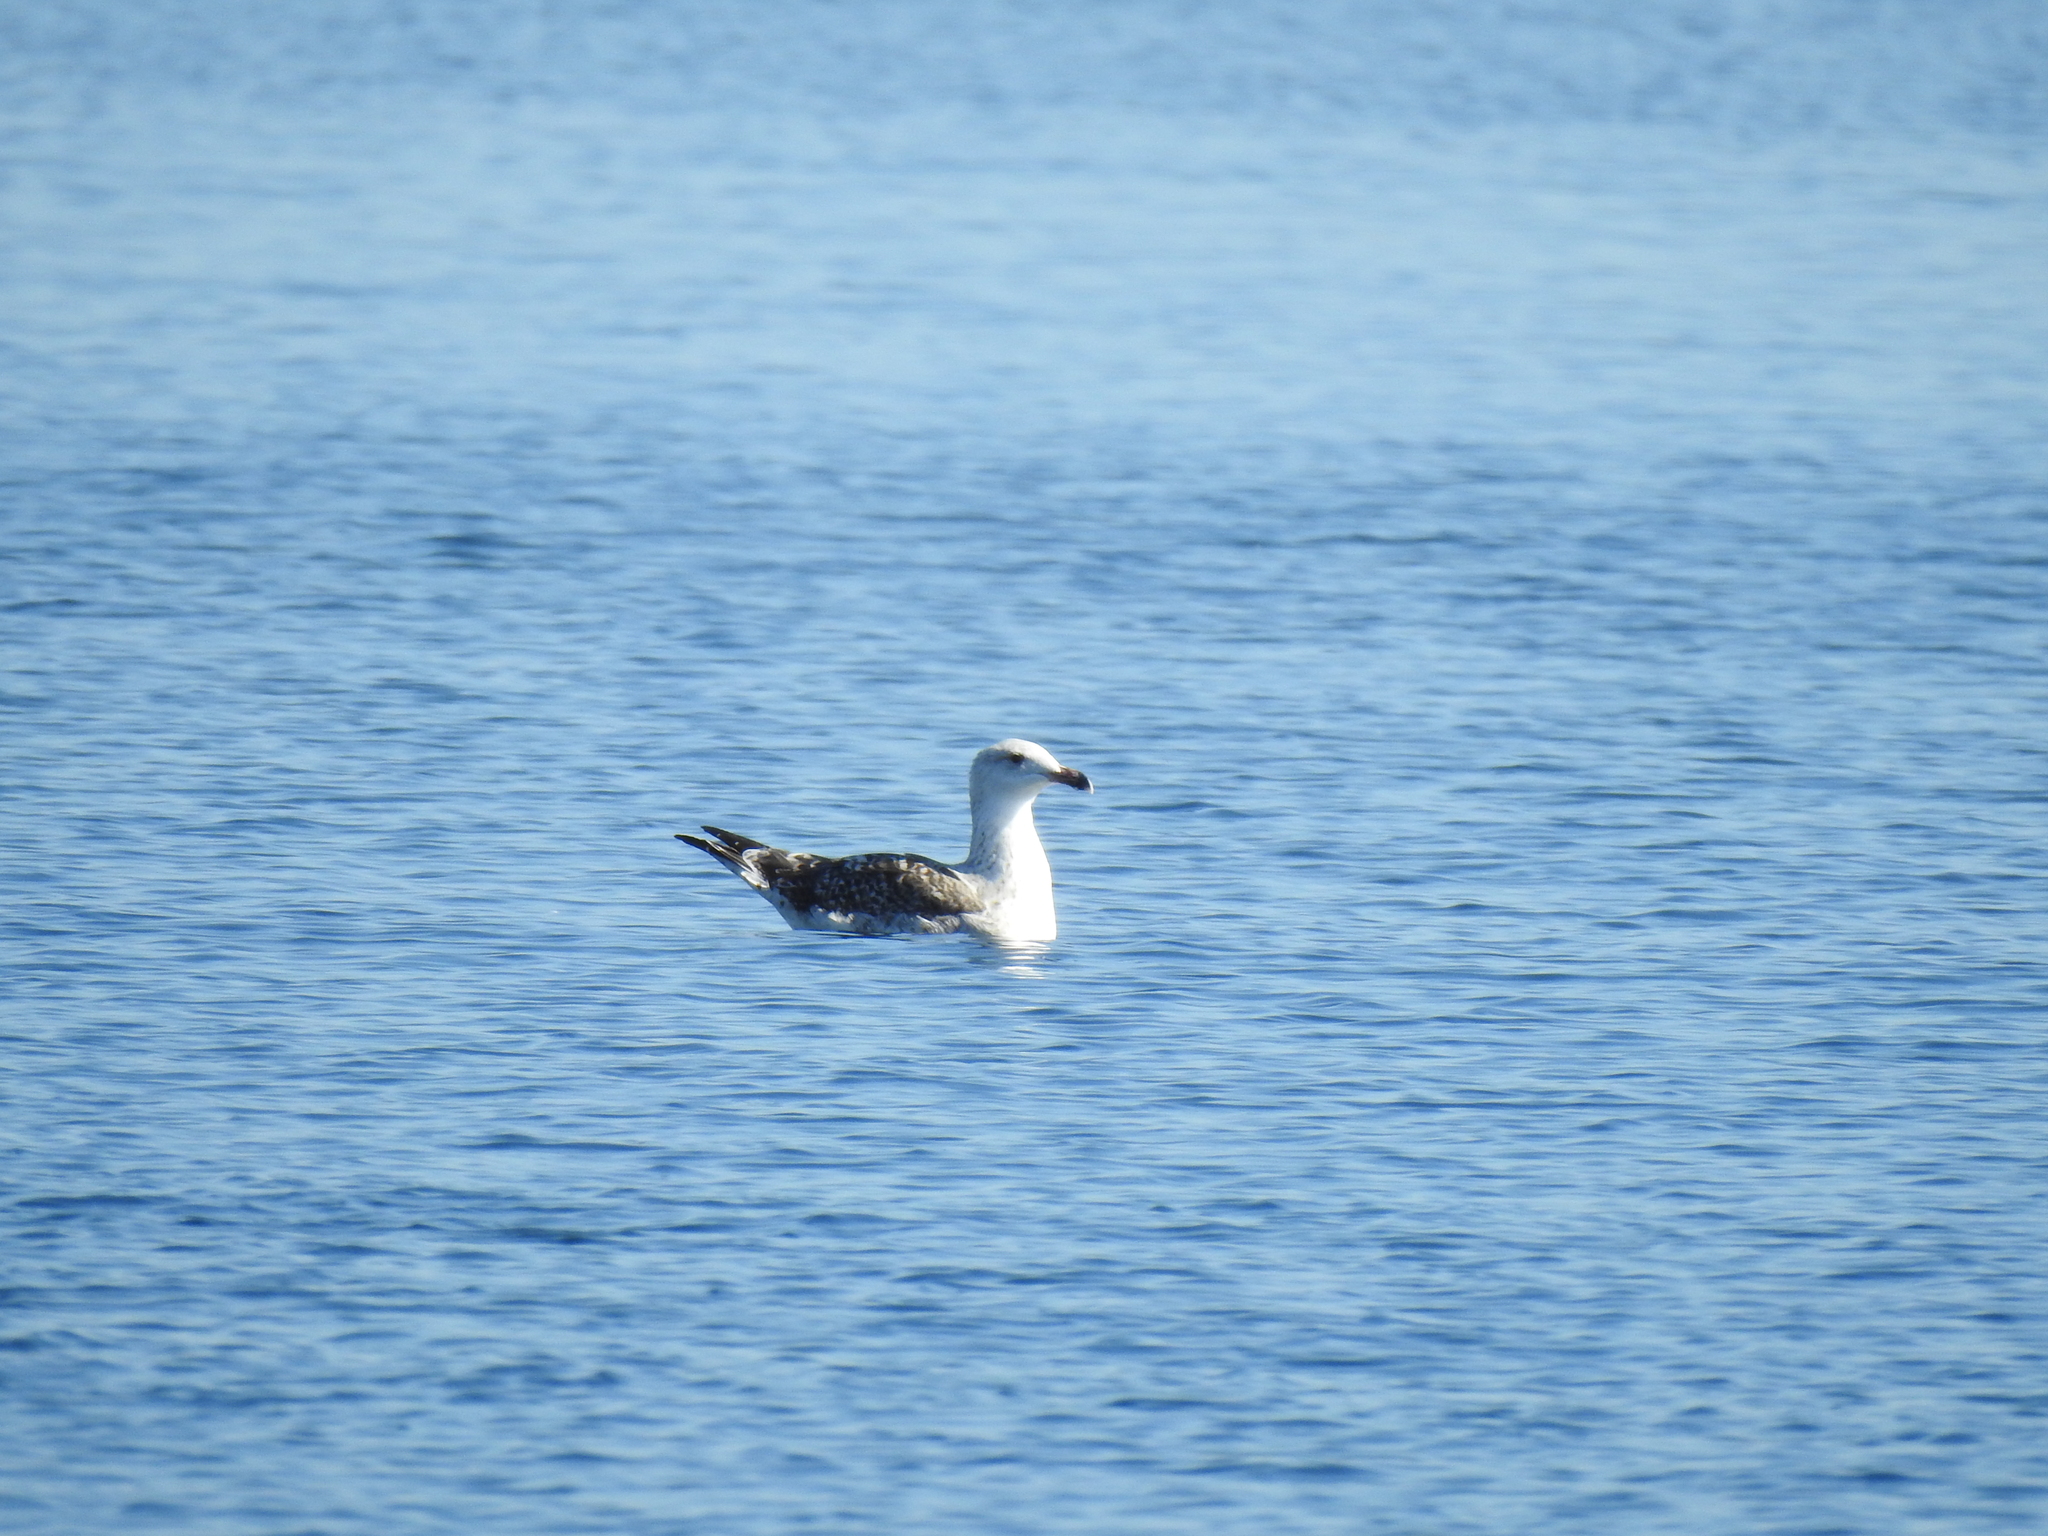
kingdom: Animalia
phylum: Chordata
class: Aves
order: Charadriiformes
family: Laridae
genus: Larus
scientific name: Larus marinus
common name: Great black-backed gull
